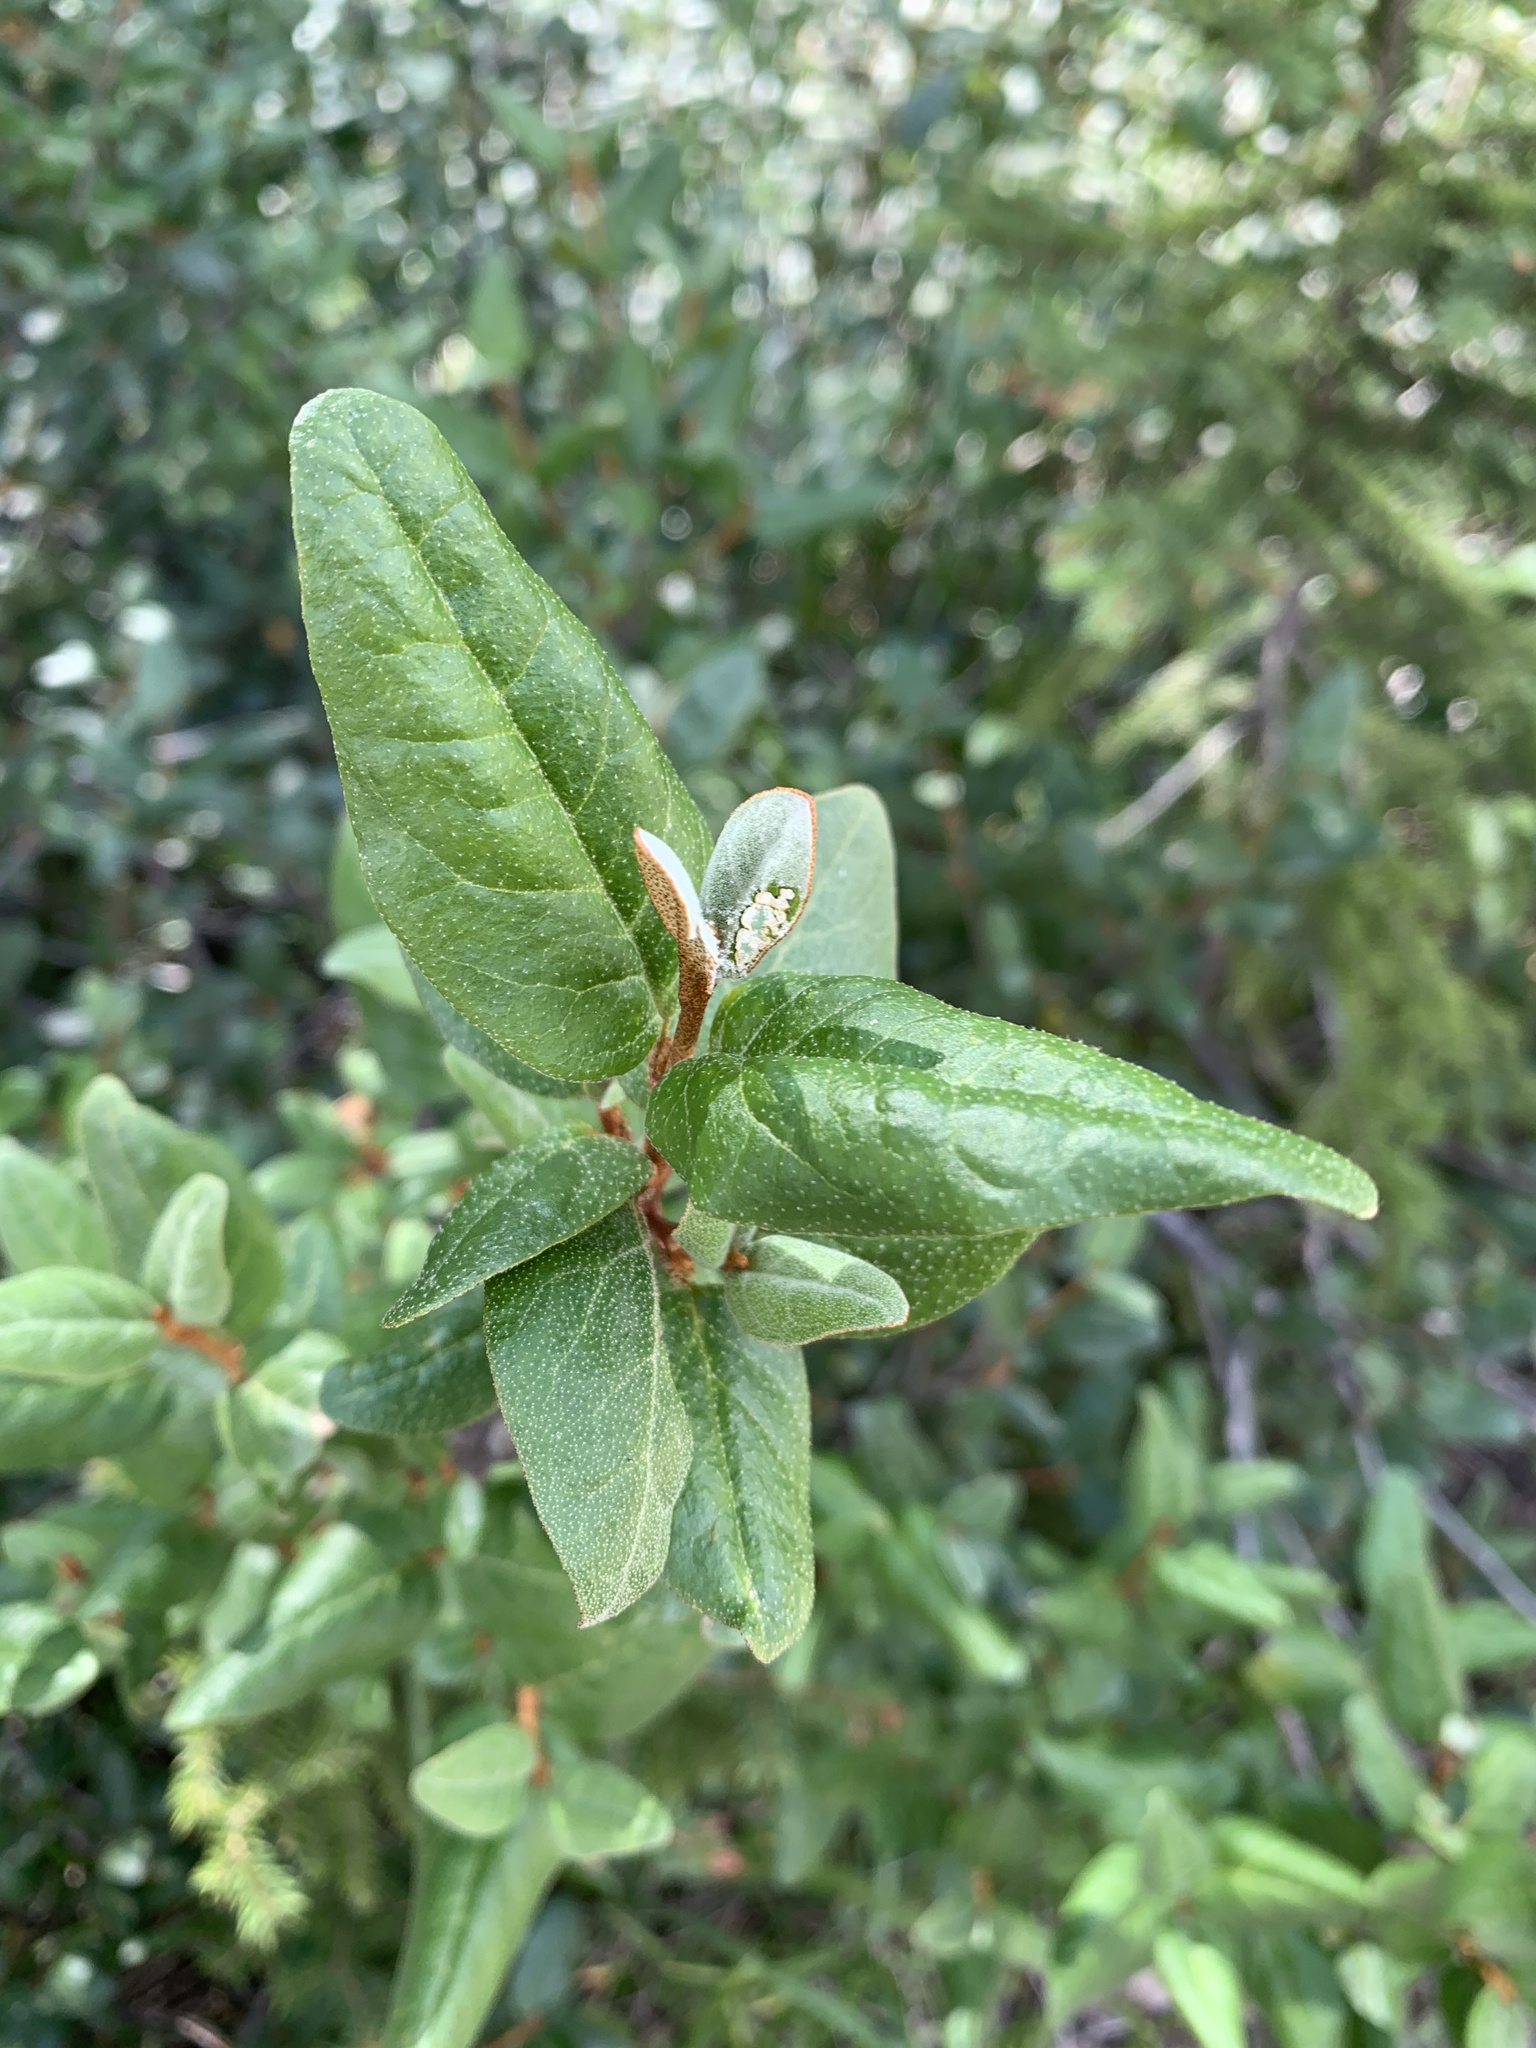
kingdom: Plantae
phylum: Tracheophyta
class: Magnoliopsida
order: Rosales
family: Elaeagnaceae
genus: Shepherdia
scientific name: Shepherdia canadensis
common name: Soapberry
